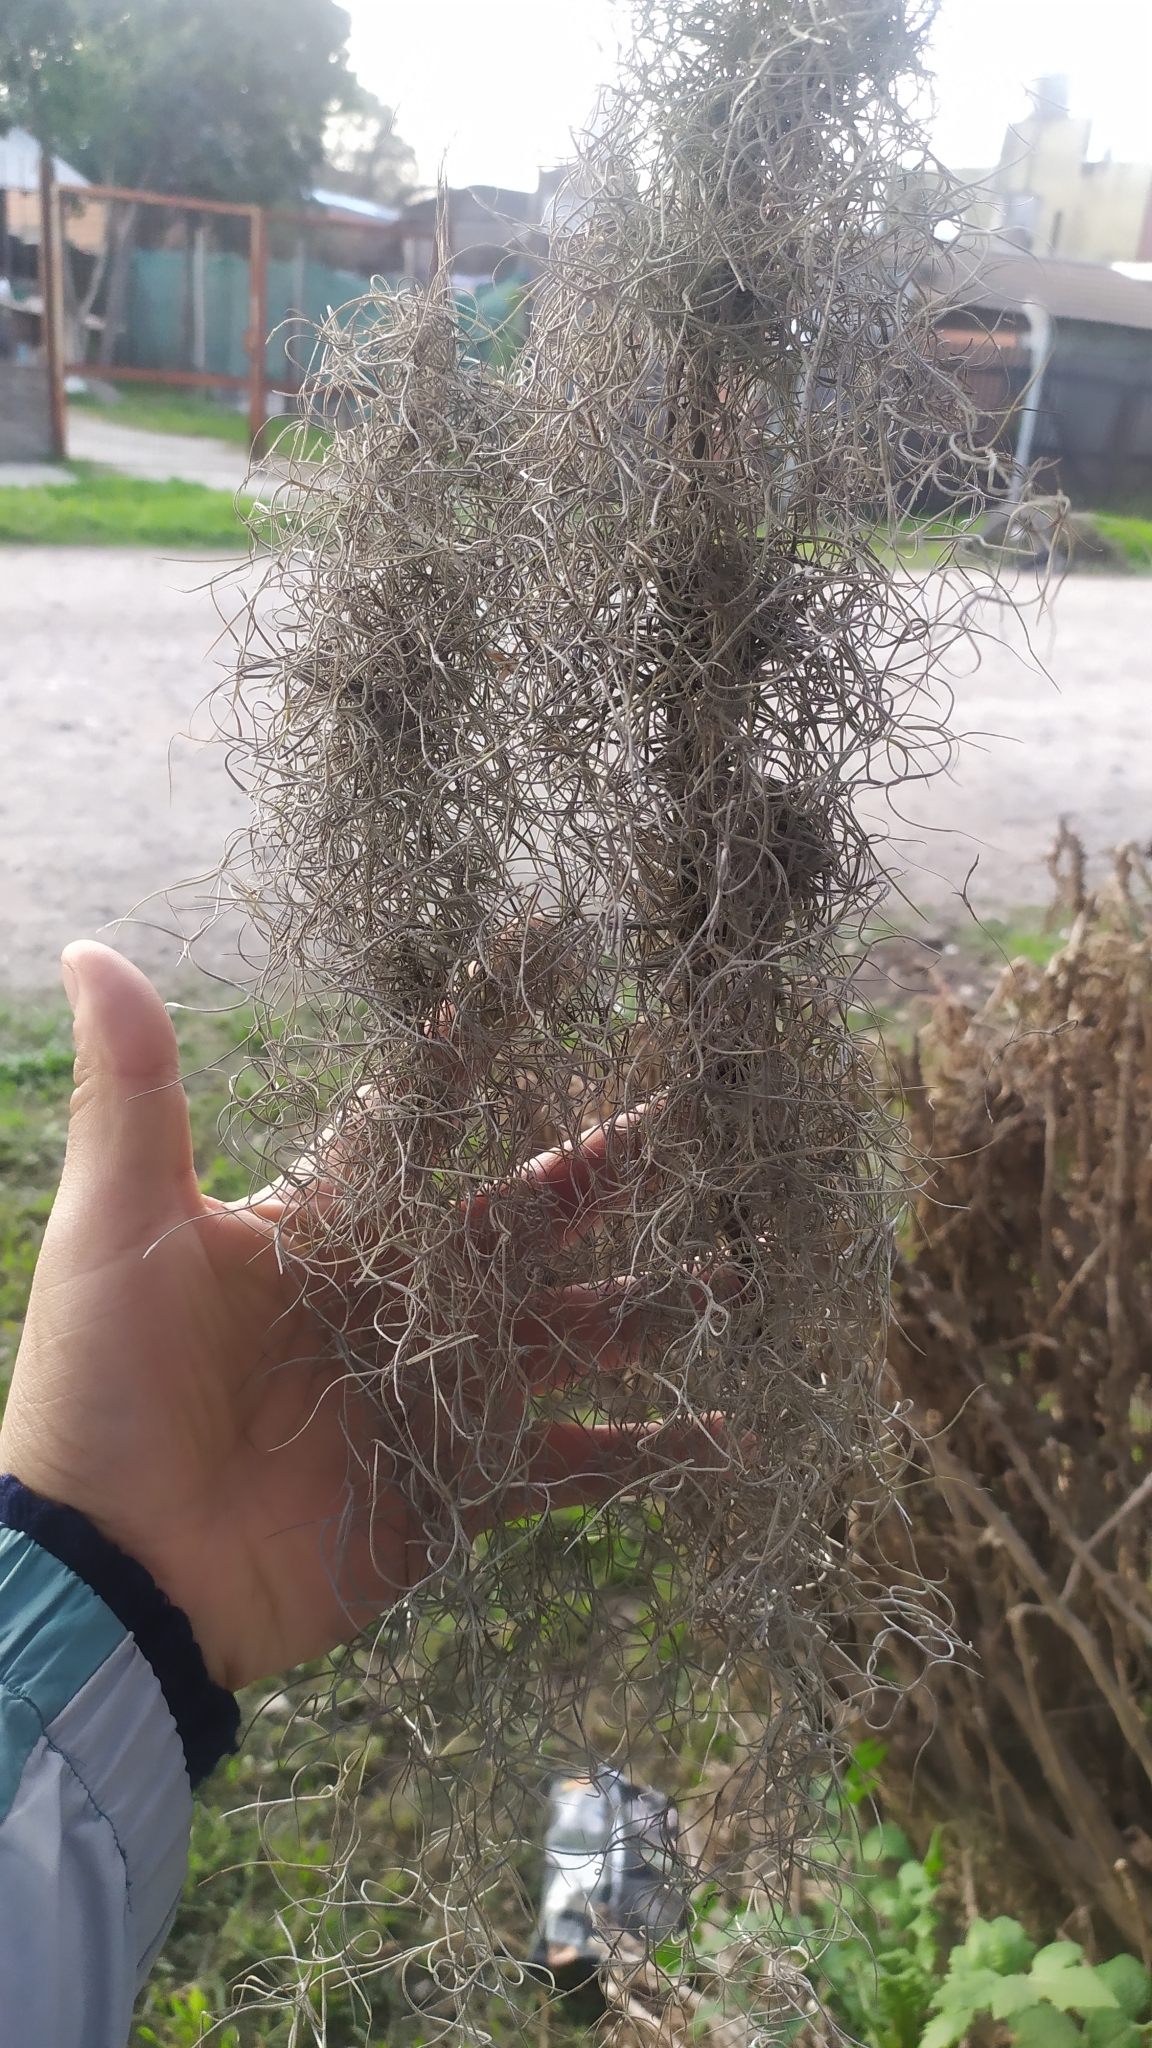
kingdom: Plantae
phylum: Tracheophyta
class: Liliopsida
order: Poales
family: Bromeliaceae
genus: Tillandsia
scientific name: Tillandsia usneoides
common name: Spanish moss
